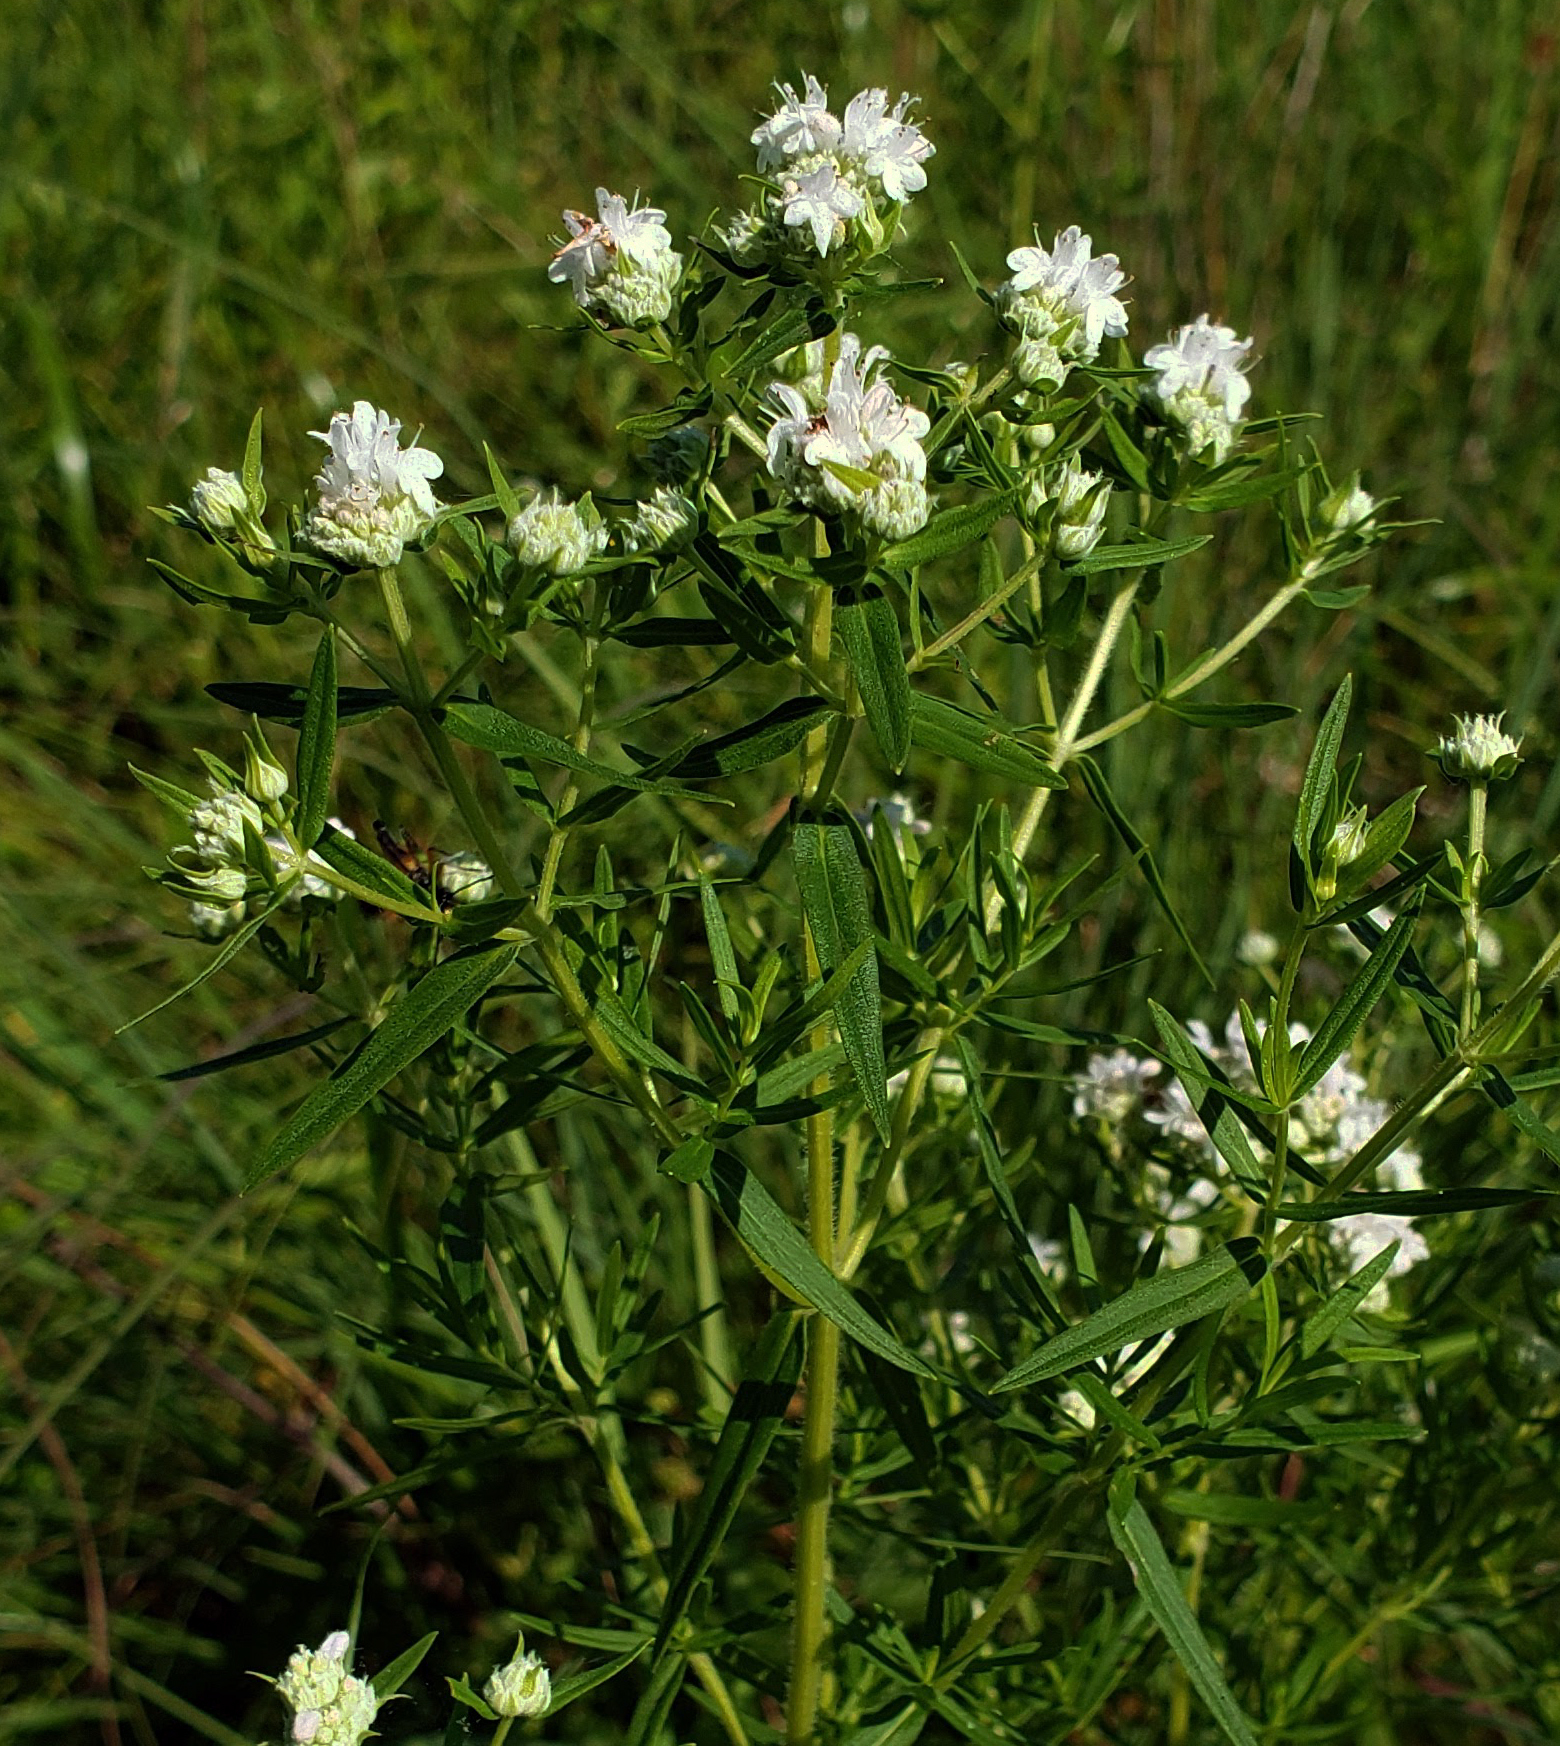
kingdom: Plantae
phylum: Tracheophyta
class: Magnoliopsida
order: Lamiales
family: Lamiaceae
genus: Pycnanthemum
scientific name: Pycnanthemum virginianum
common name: Virginia mountain-mint
